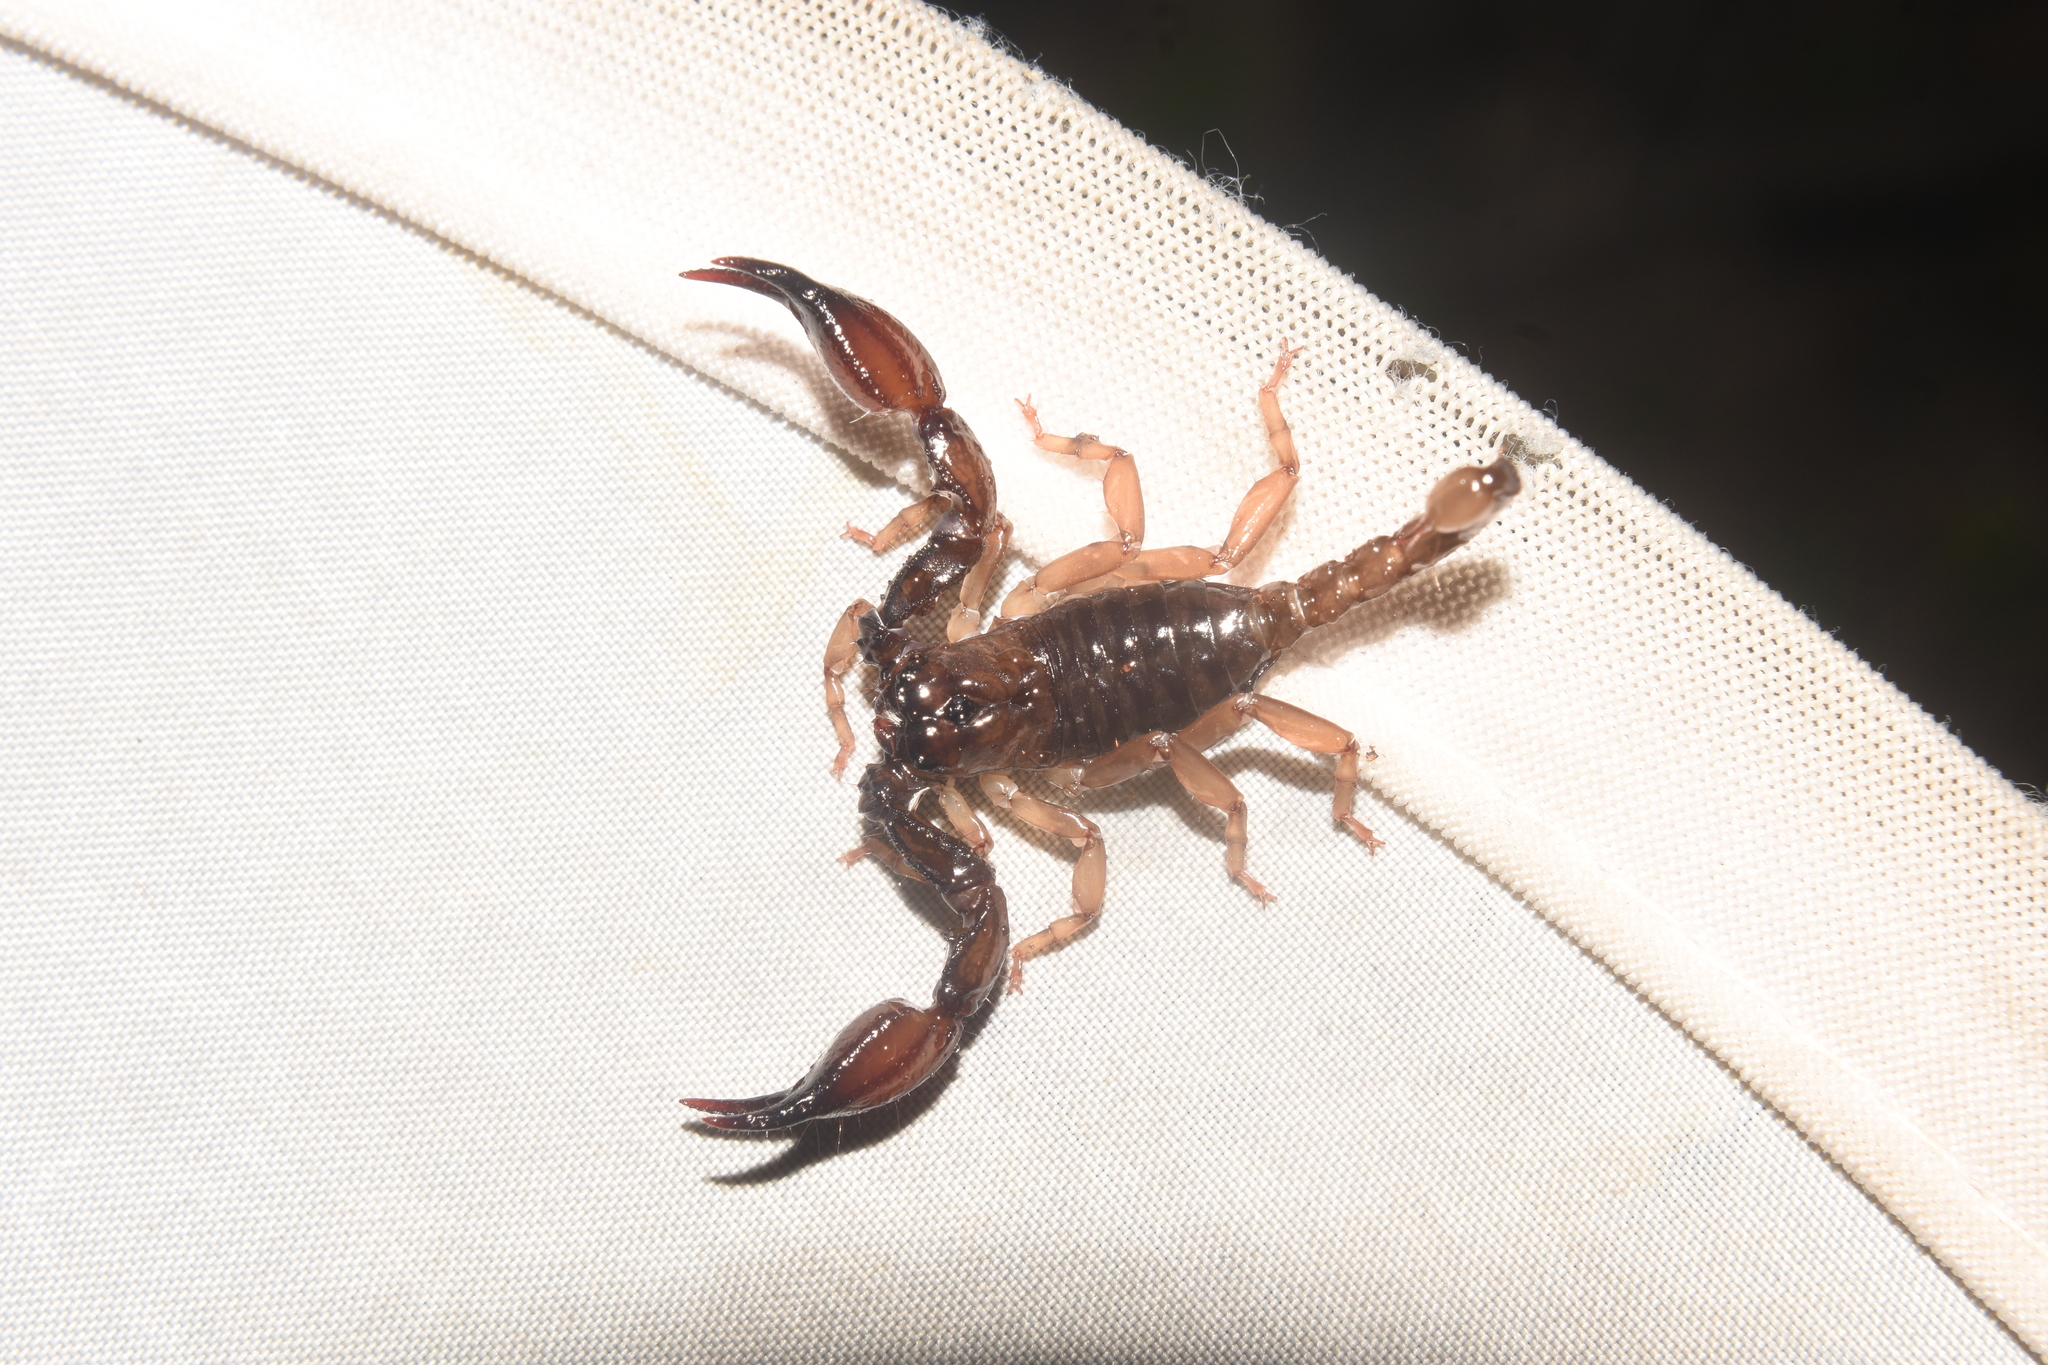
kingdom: Animalia
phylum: Arthropoda
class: Arachnida
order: Scorpiones
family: Chactidae
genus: Chactas
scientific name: Chactas ozendai
